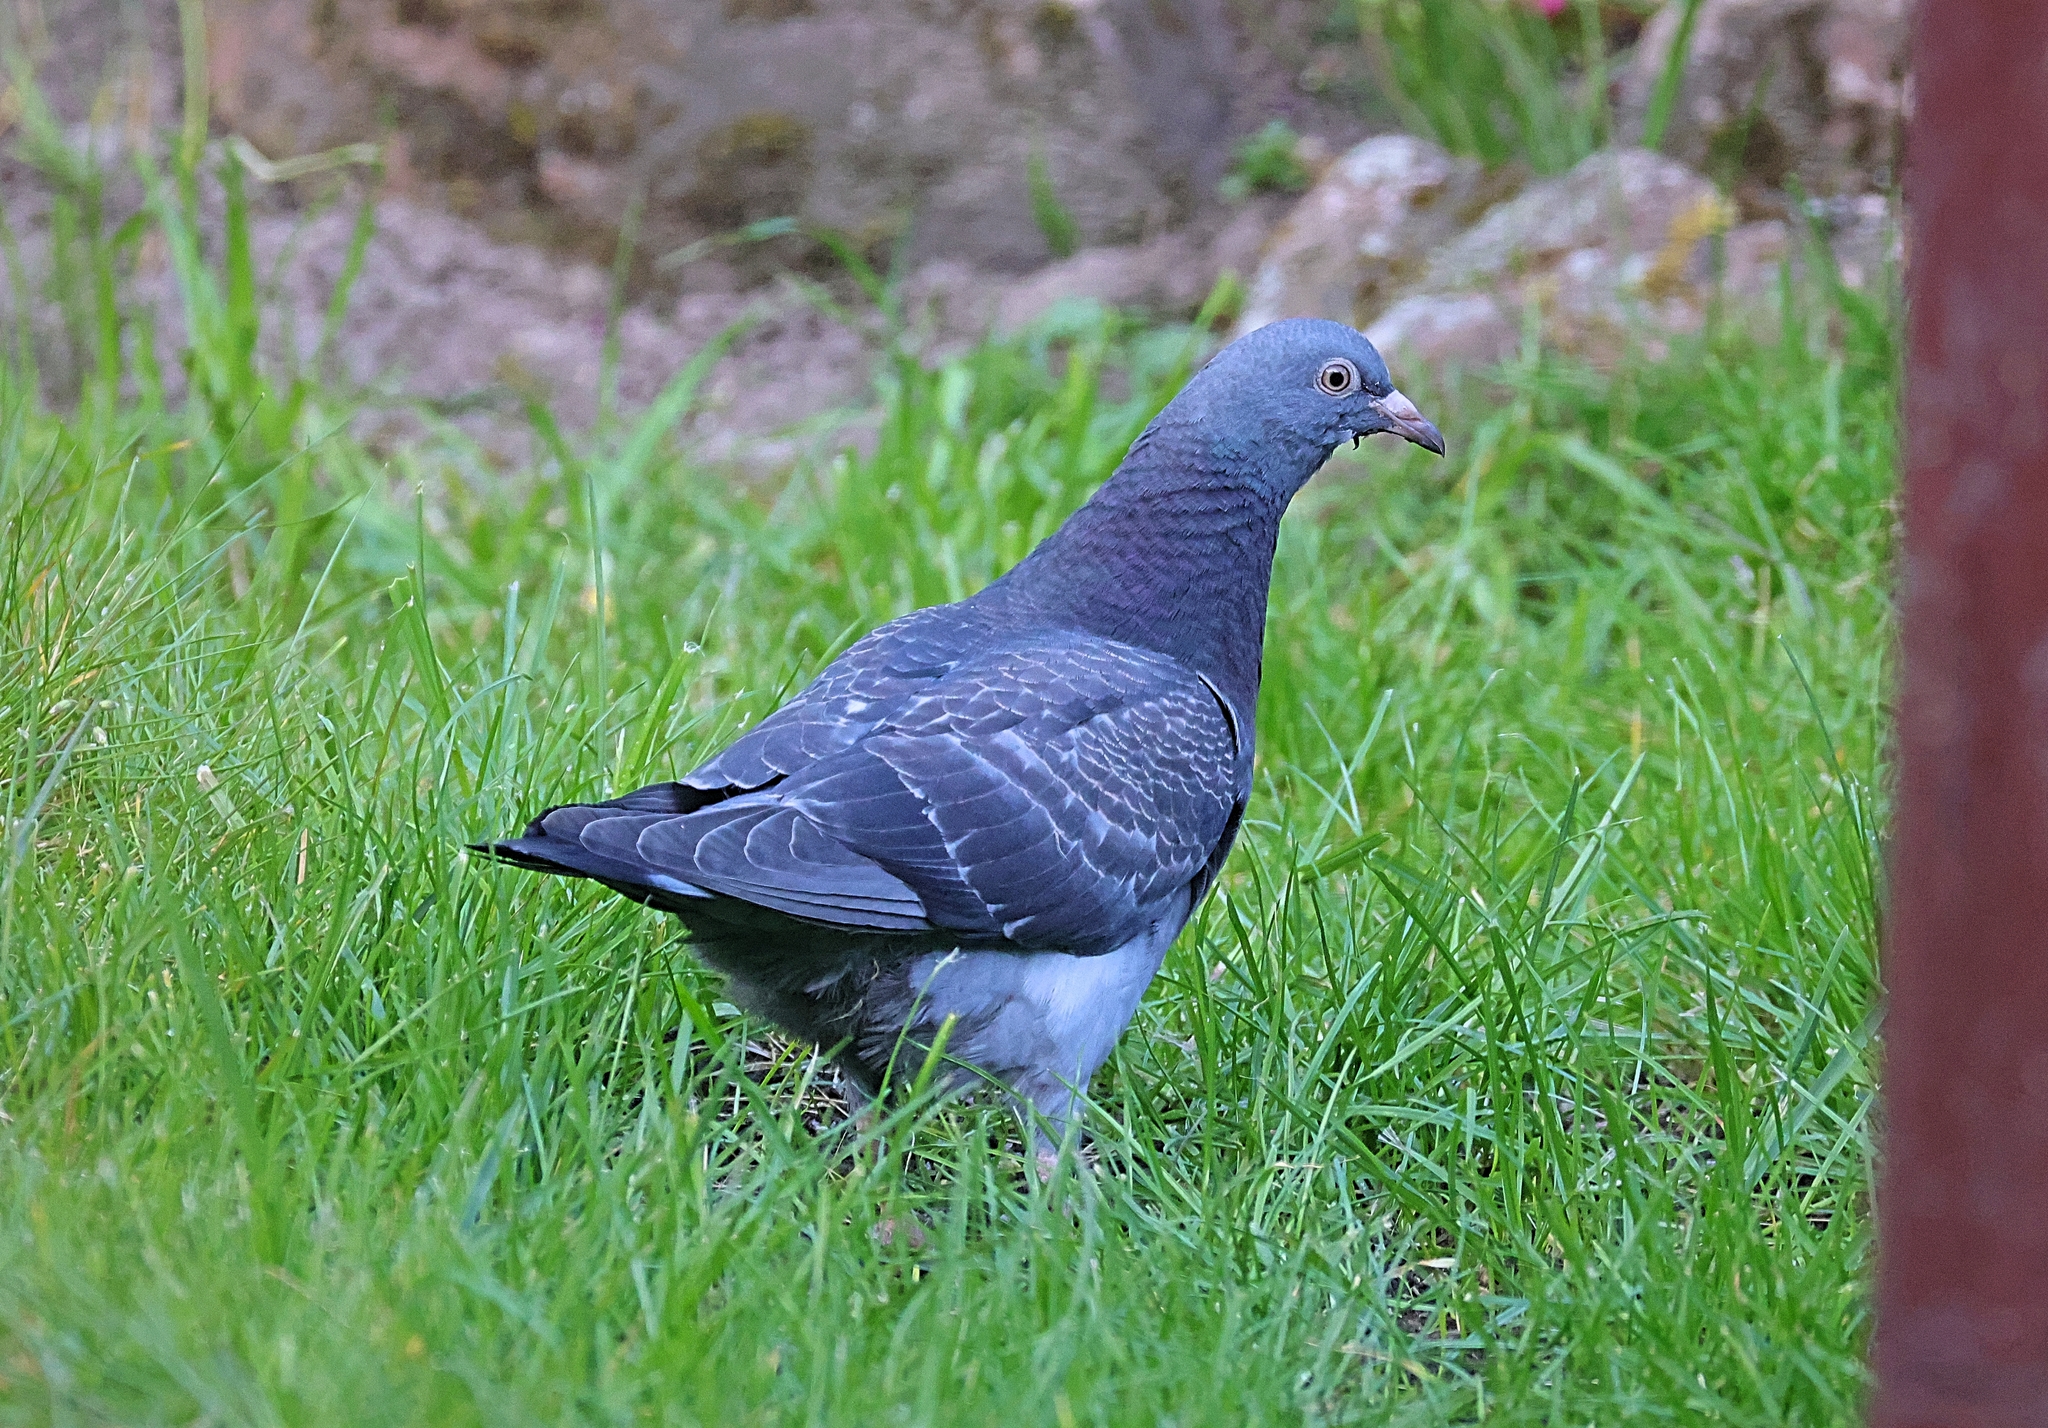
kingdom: Animalia
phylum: Chordata
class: Aves
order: Columbiformes
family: Columbidae
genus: Columba
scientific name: Columba livia
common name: Rock pigeon
